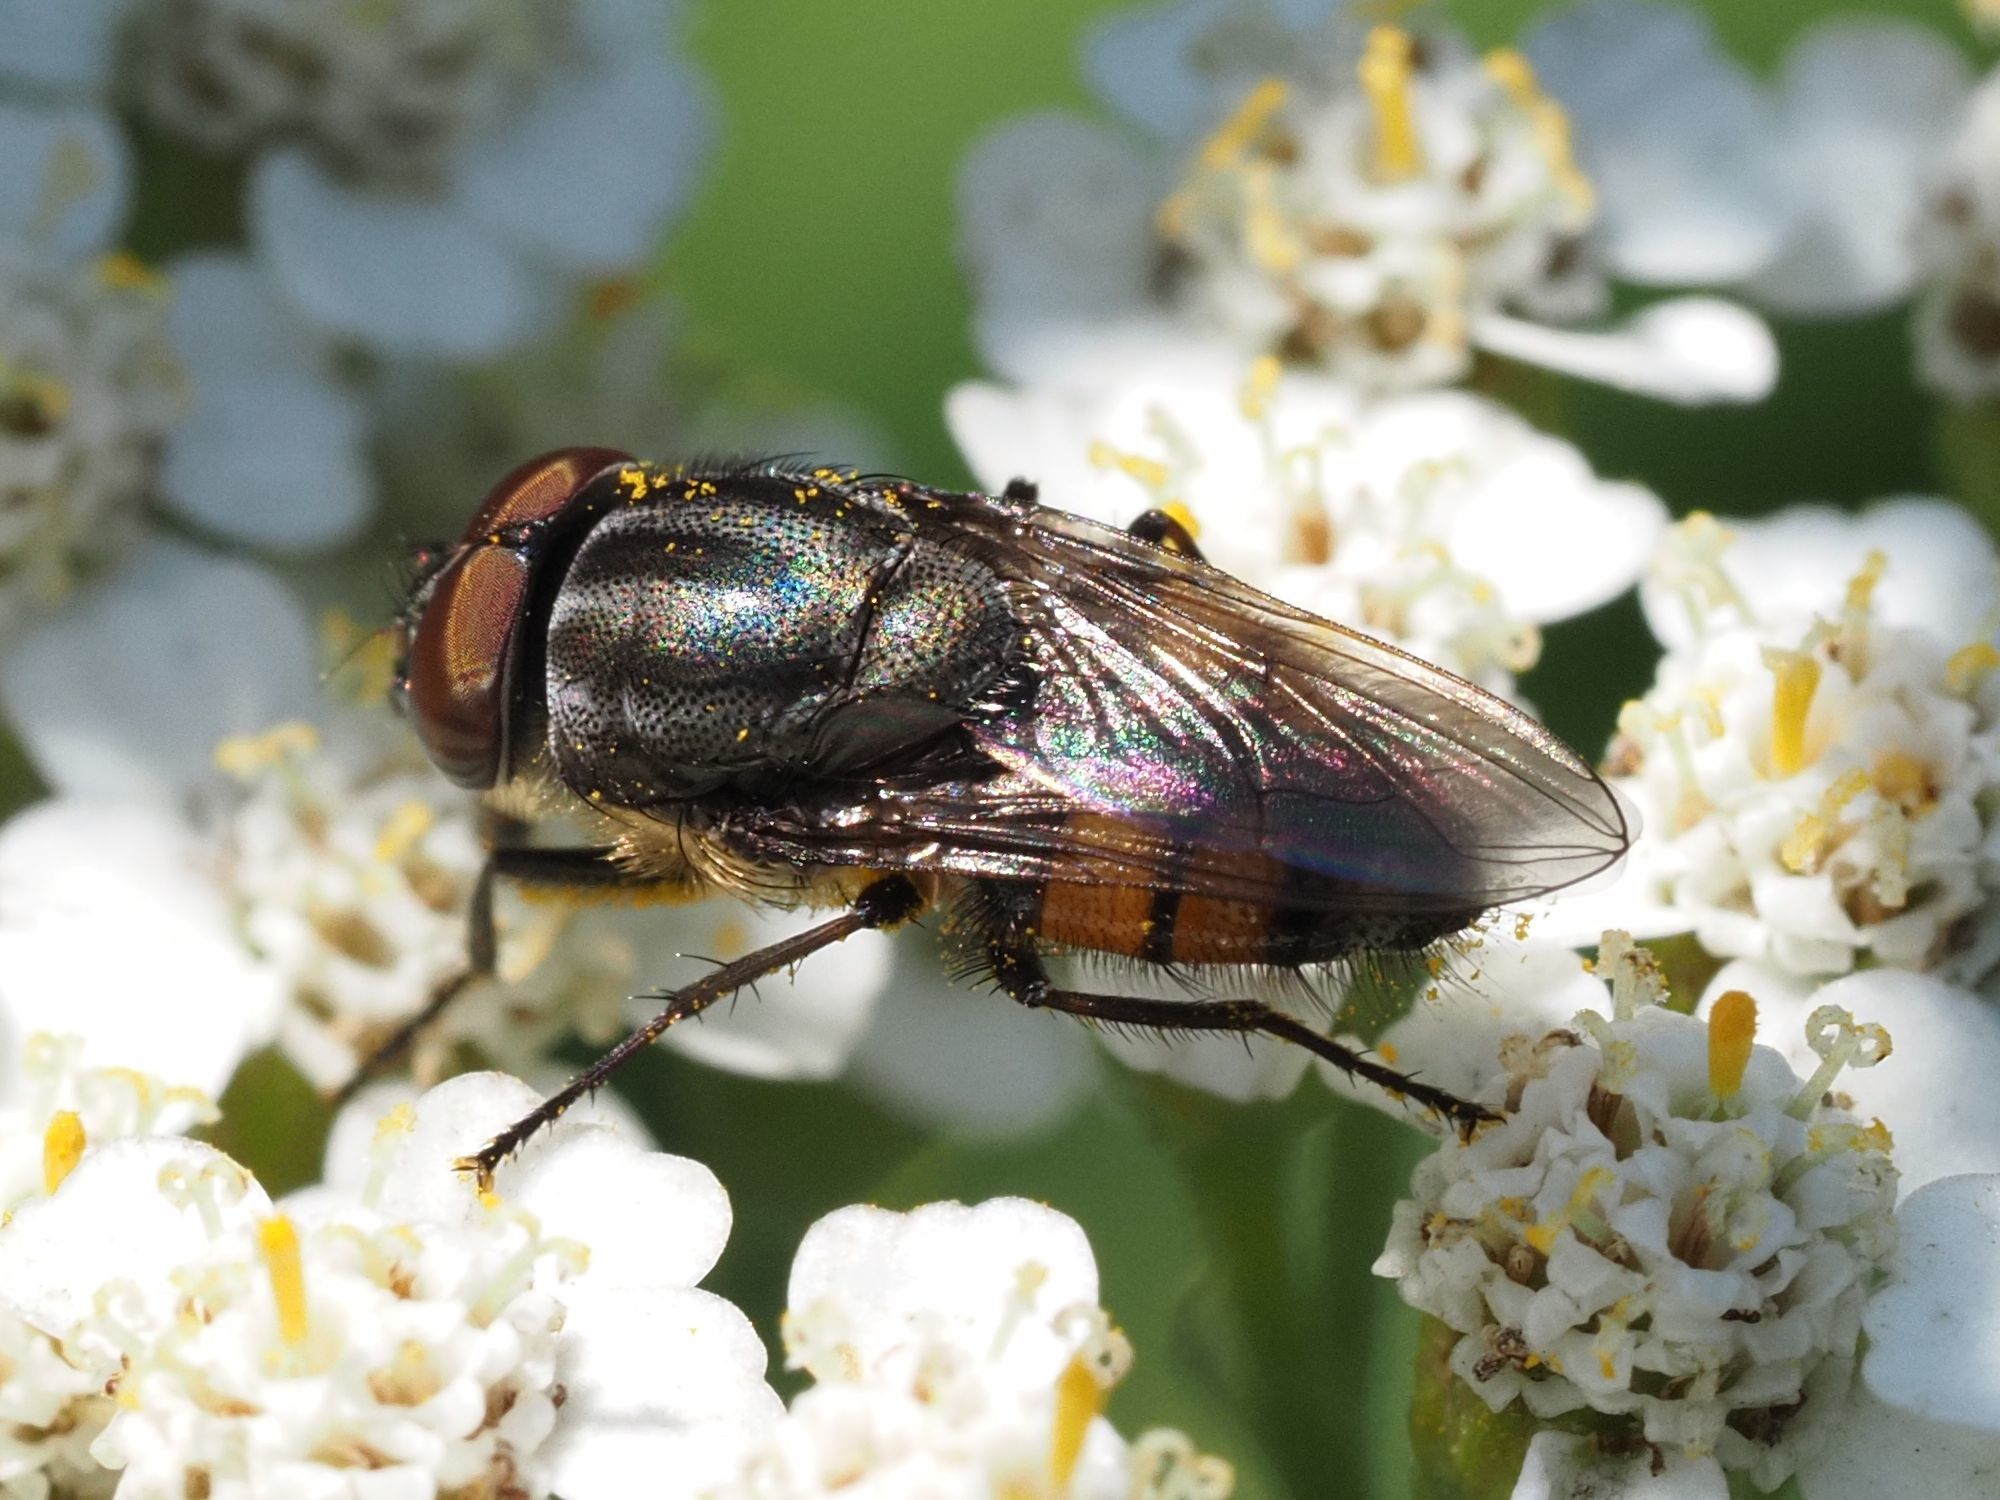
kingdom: Animalia
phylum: Arthropoda
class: Insecta
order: Diptera
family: Calliphoridae
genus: Stomorhina
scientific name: Stomorhina lunata
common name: Locust blowfly
